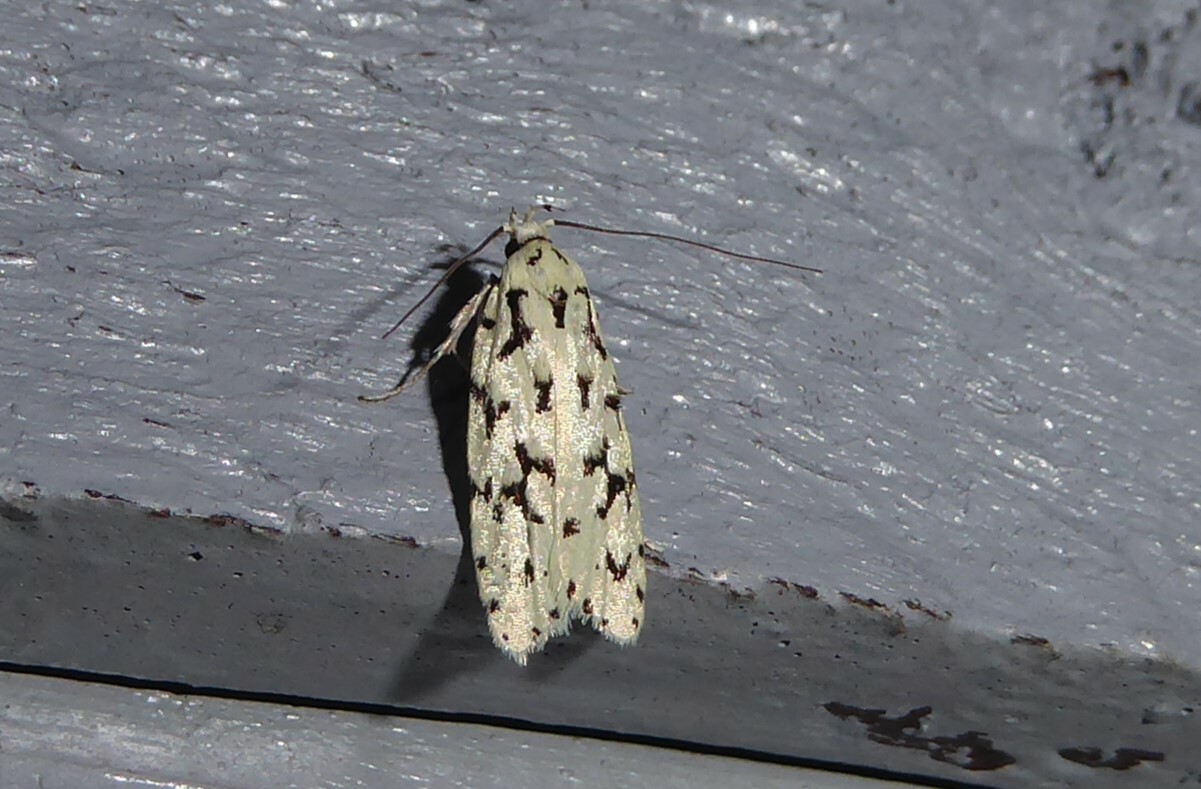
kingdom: Animalia
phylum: Arthropoda
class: Insecta
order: Lepidoptera
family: Oecophoridae
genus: Izatha
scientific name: Izatha huttoni
